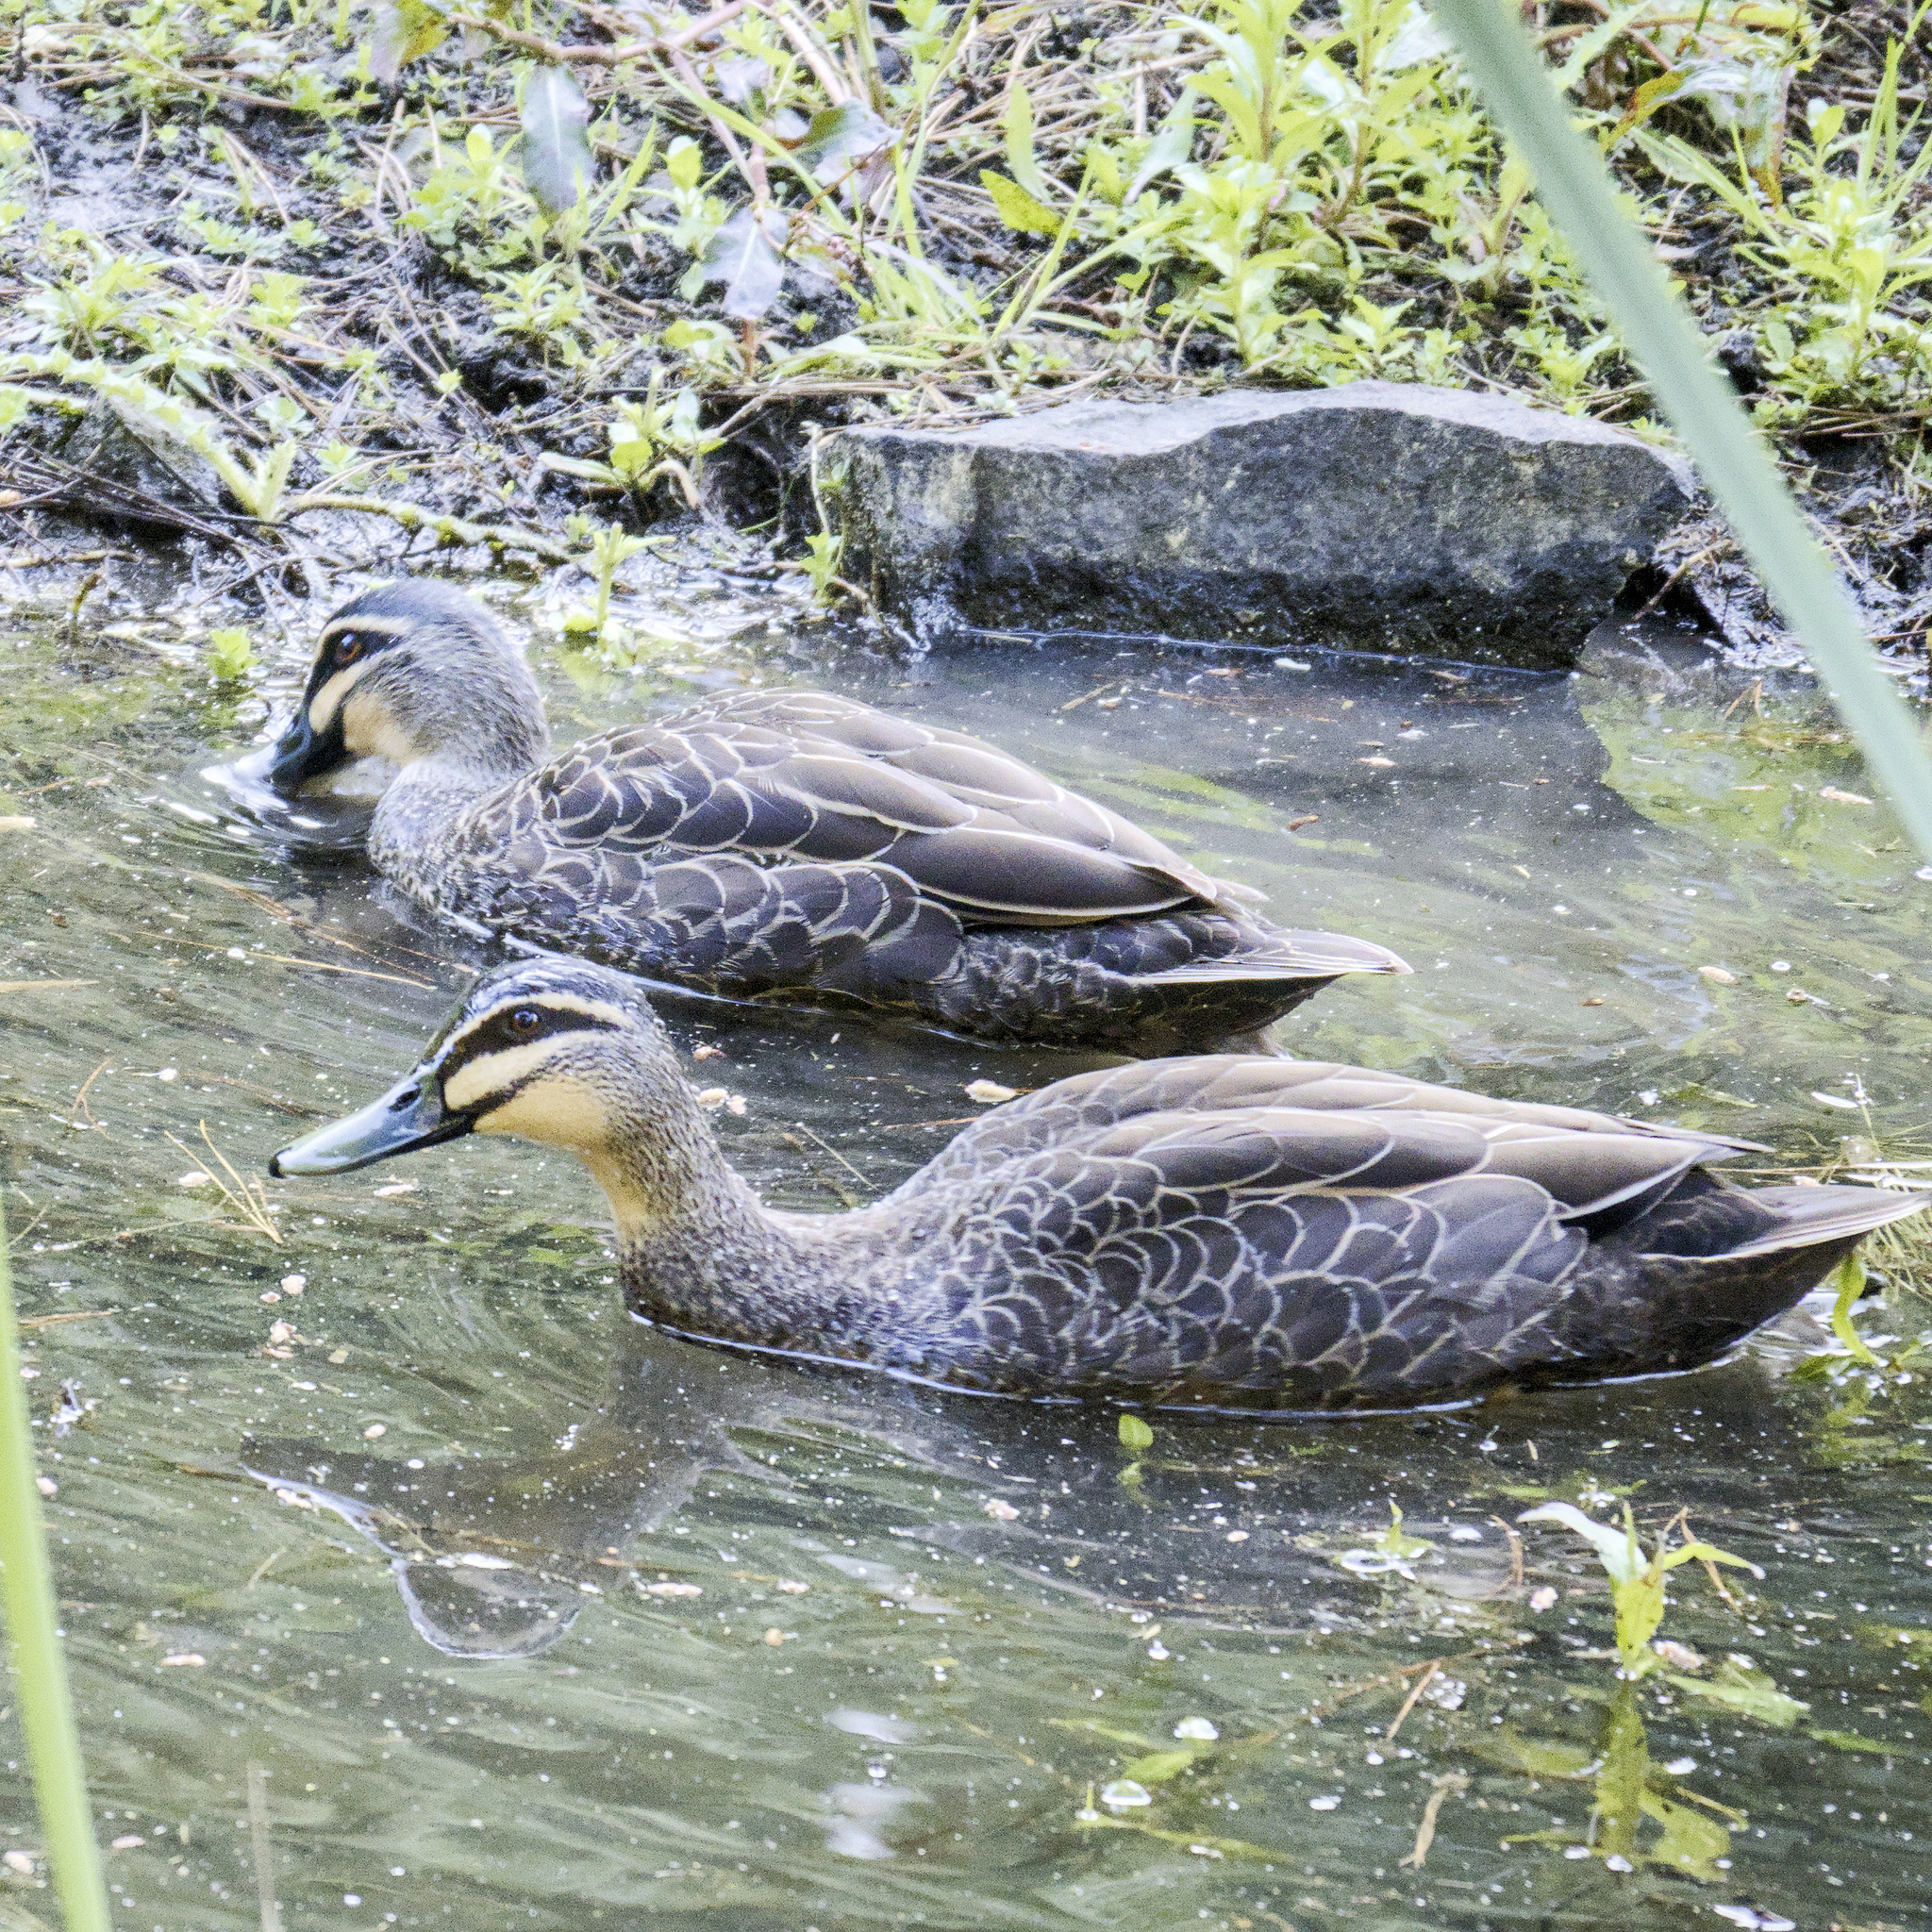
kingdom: Animalia
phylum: Chordata
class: Aves
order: Anseriformes
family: Anatidae
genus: Anas
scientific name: Anas superciliosa
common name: Pacific black duck
